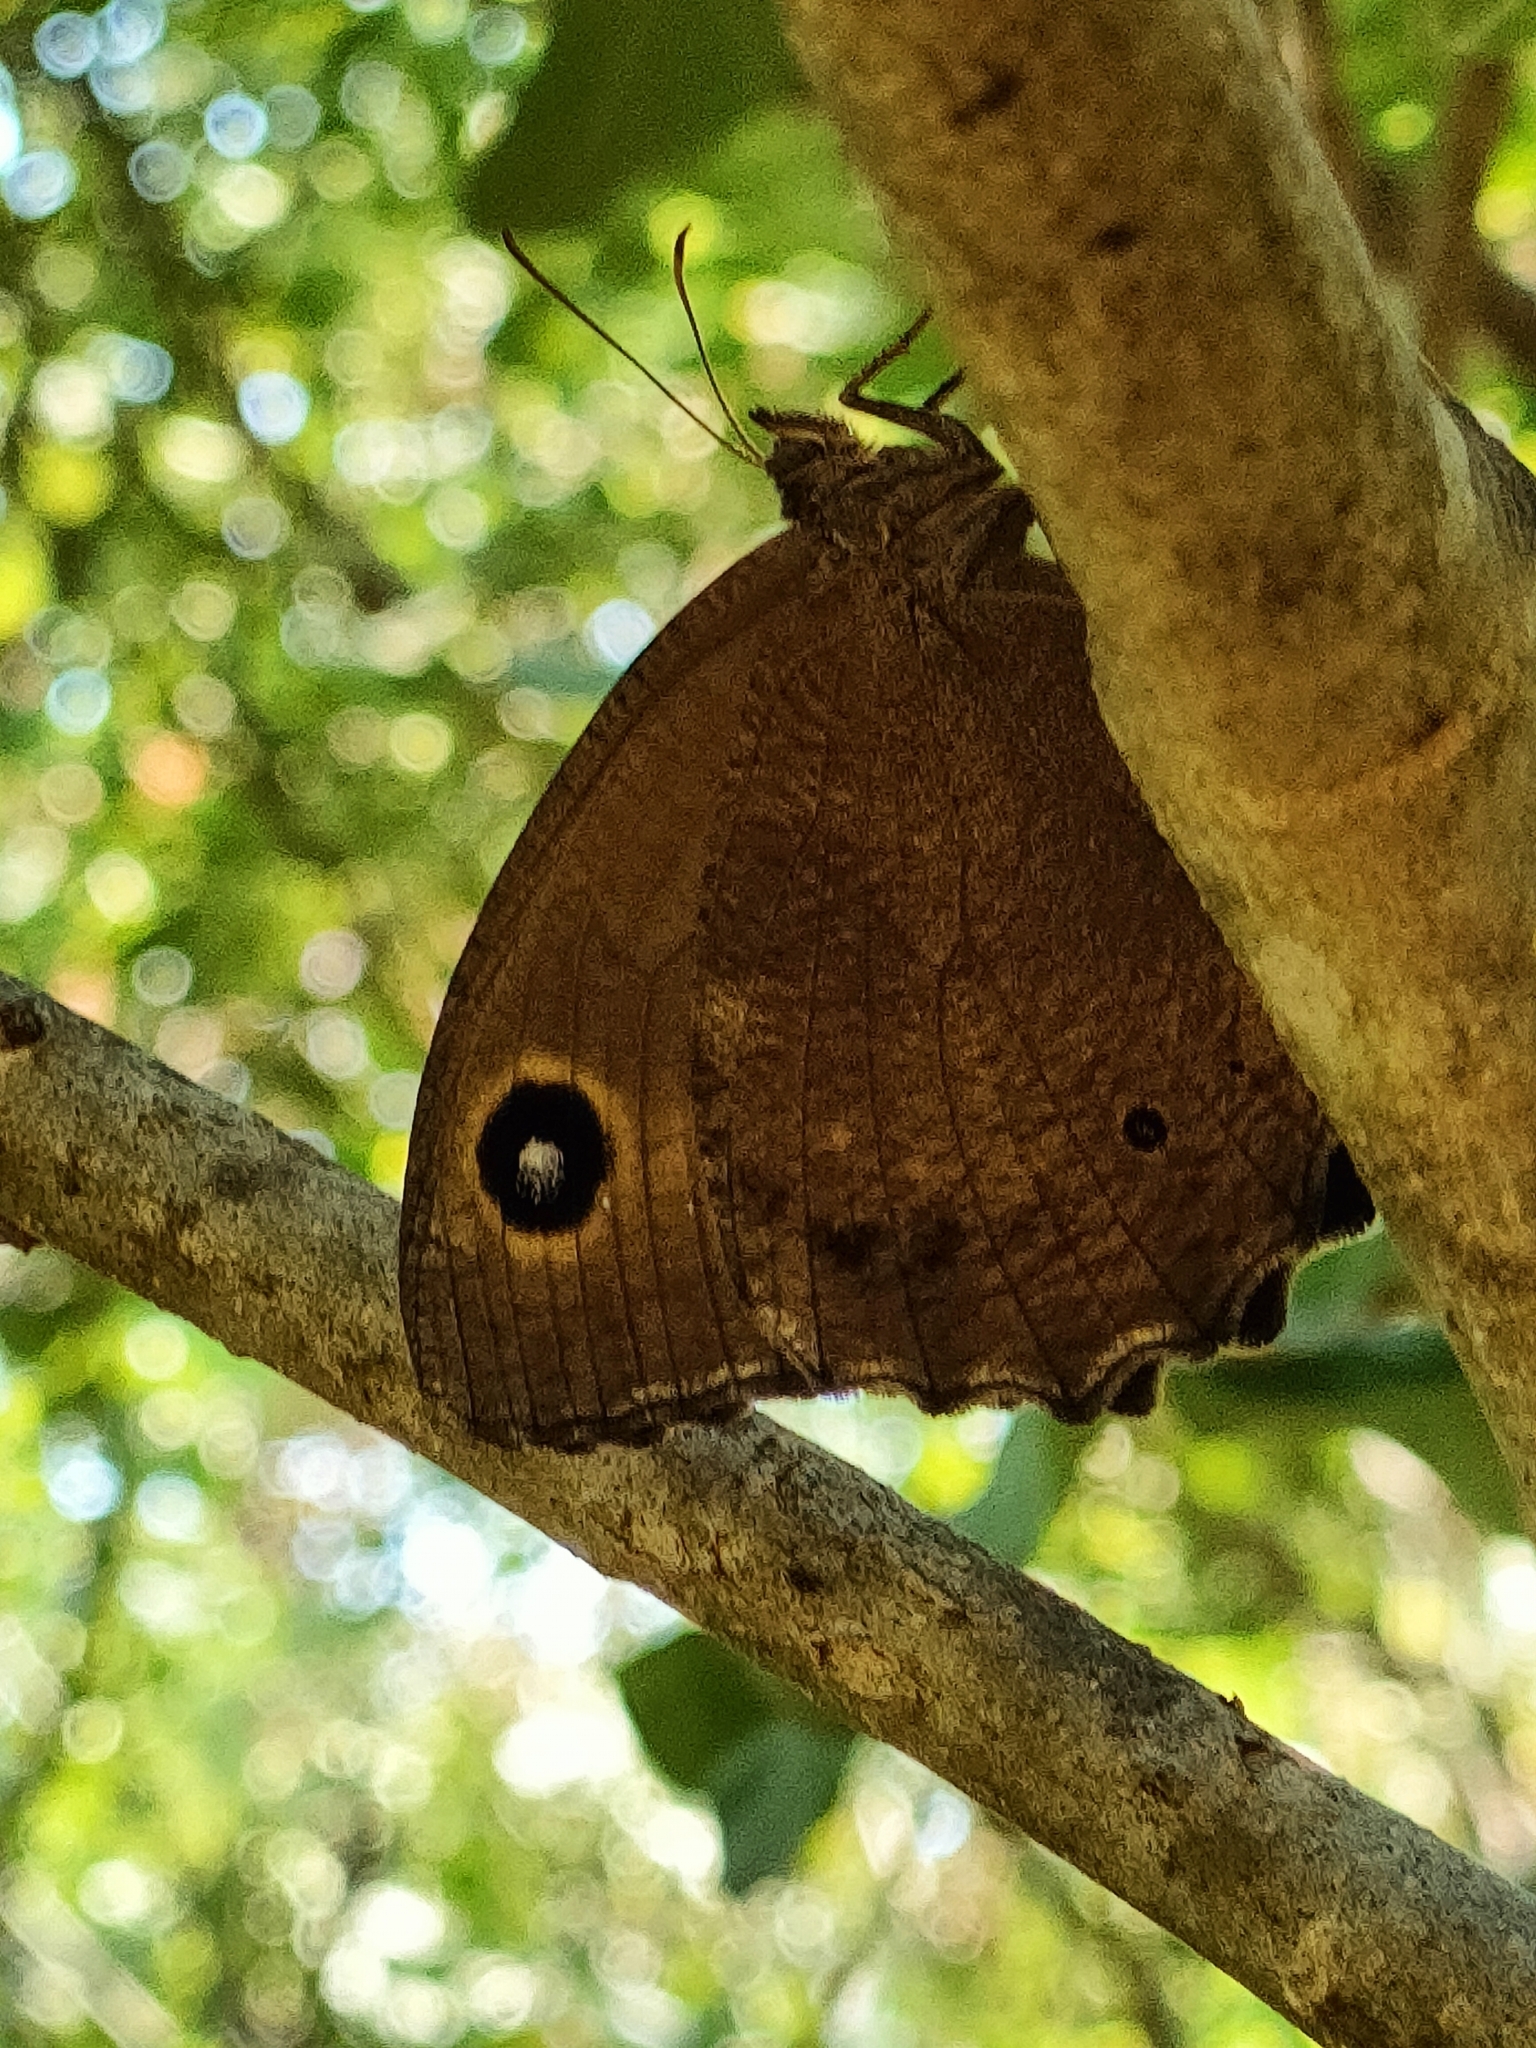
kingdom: Animalia
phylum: Arthropoda
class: Insecta
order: Lepidoptera
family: Nymphalidae
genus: Minois
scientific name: Minois dryas
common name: Dryad
